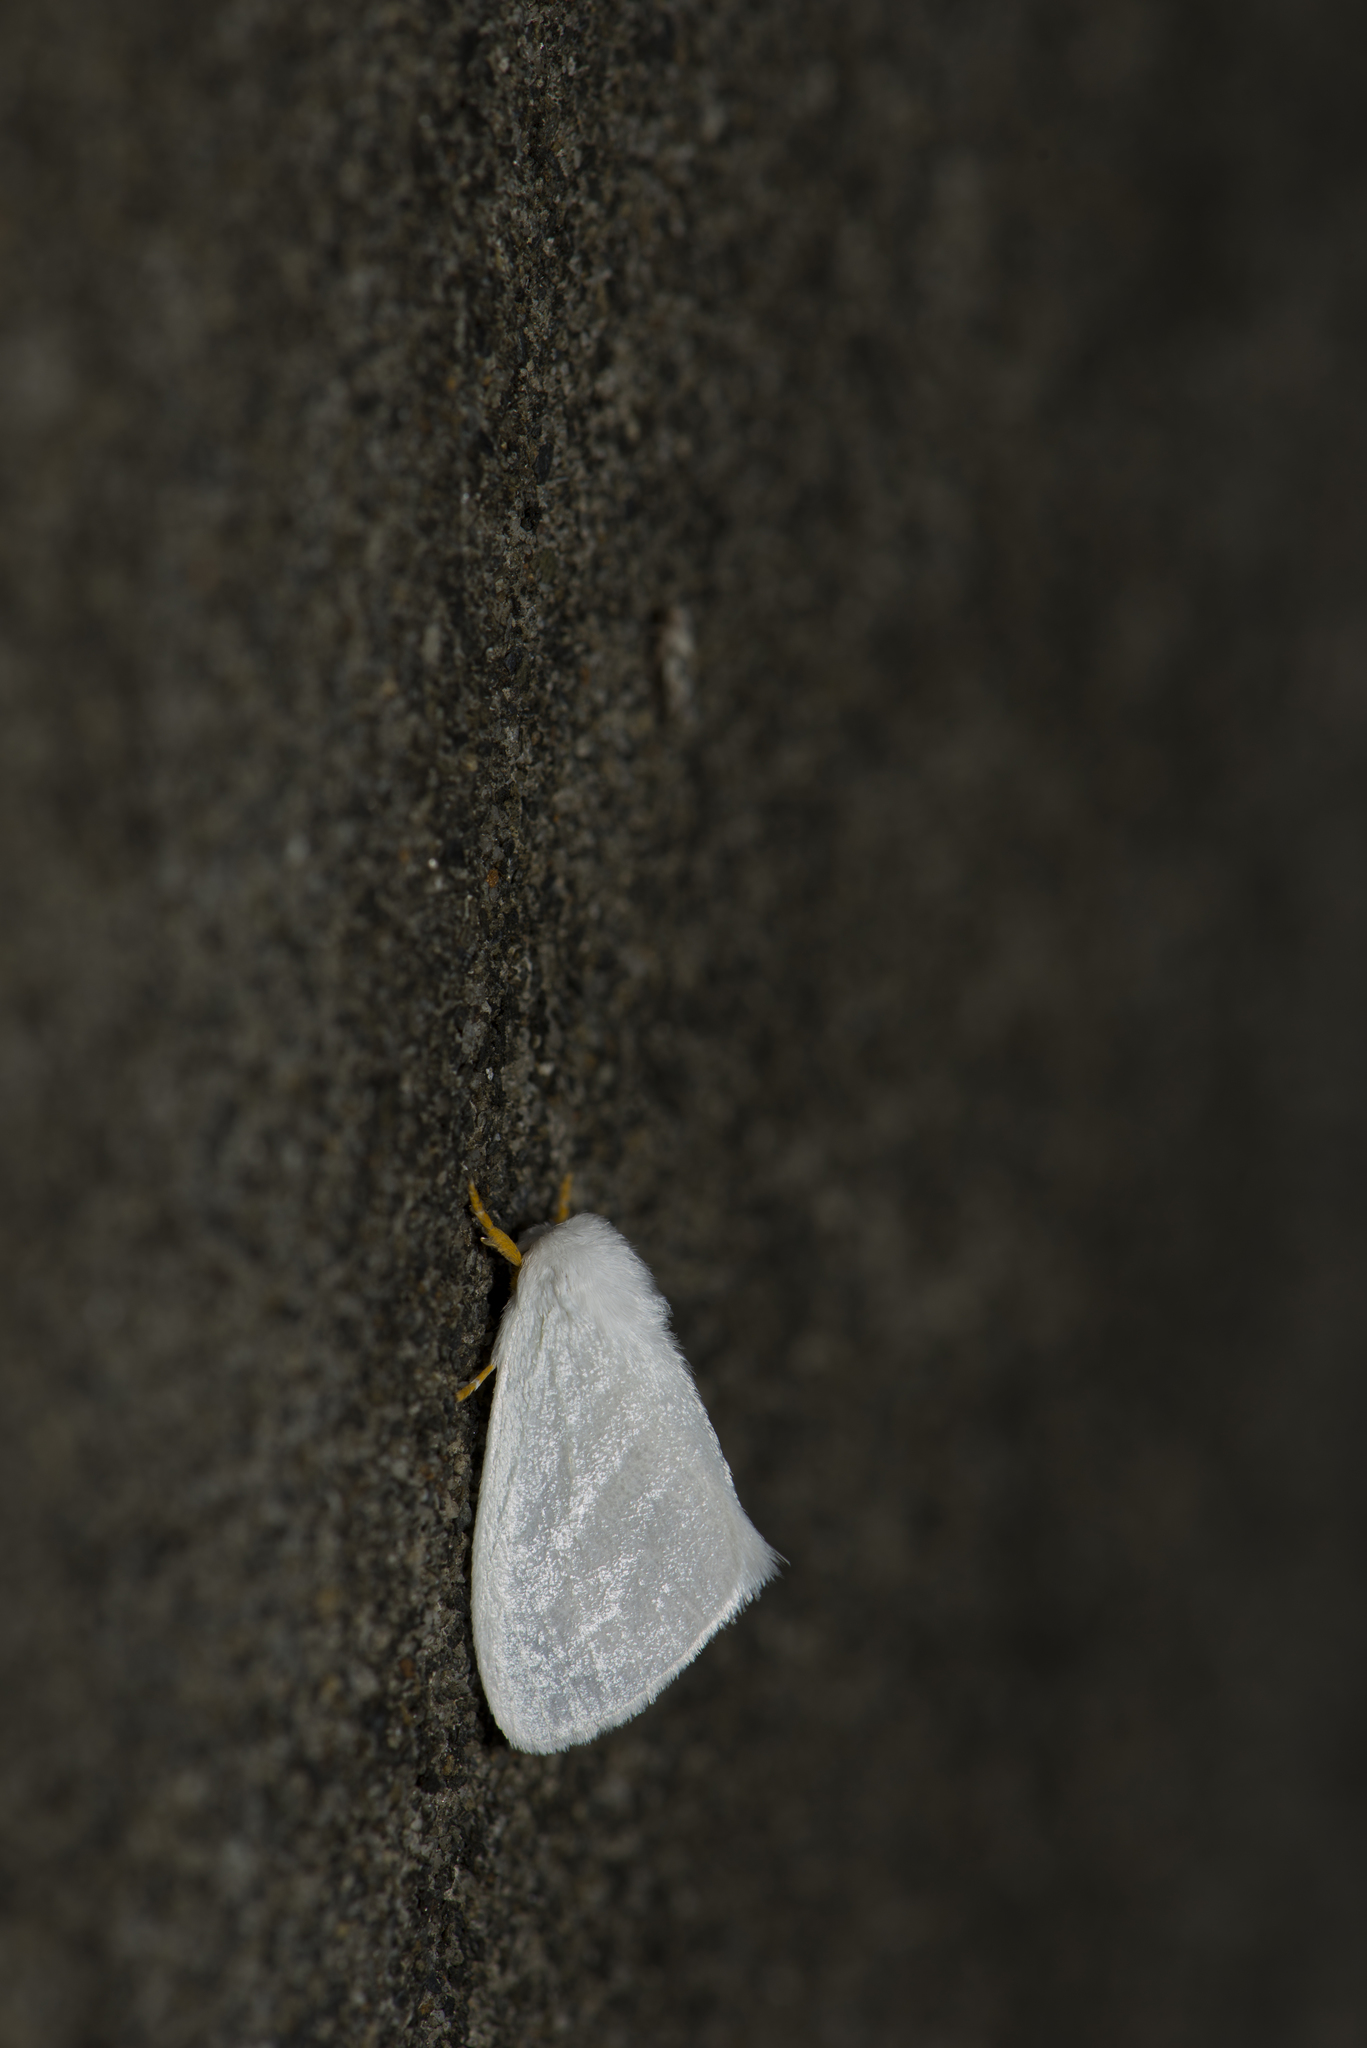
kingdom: Animalia
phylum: Arthropoda
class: Insecta
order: Lepidoptera
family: Erebidae
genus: Leucoma
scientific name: Leucoma clara
